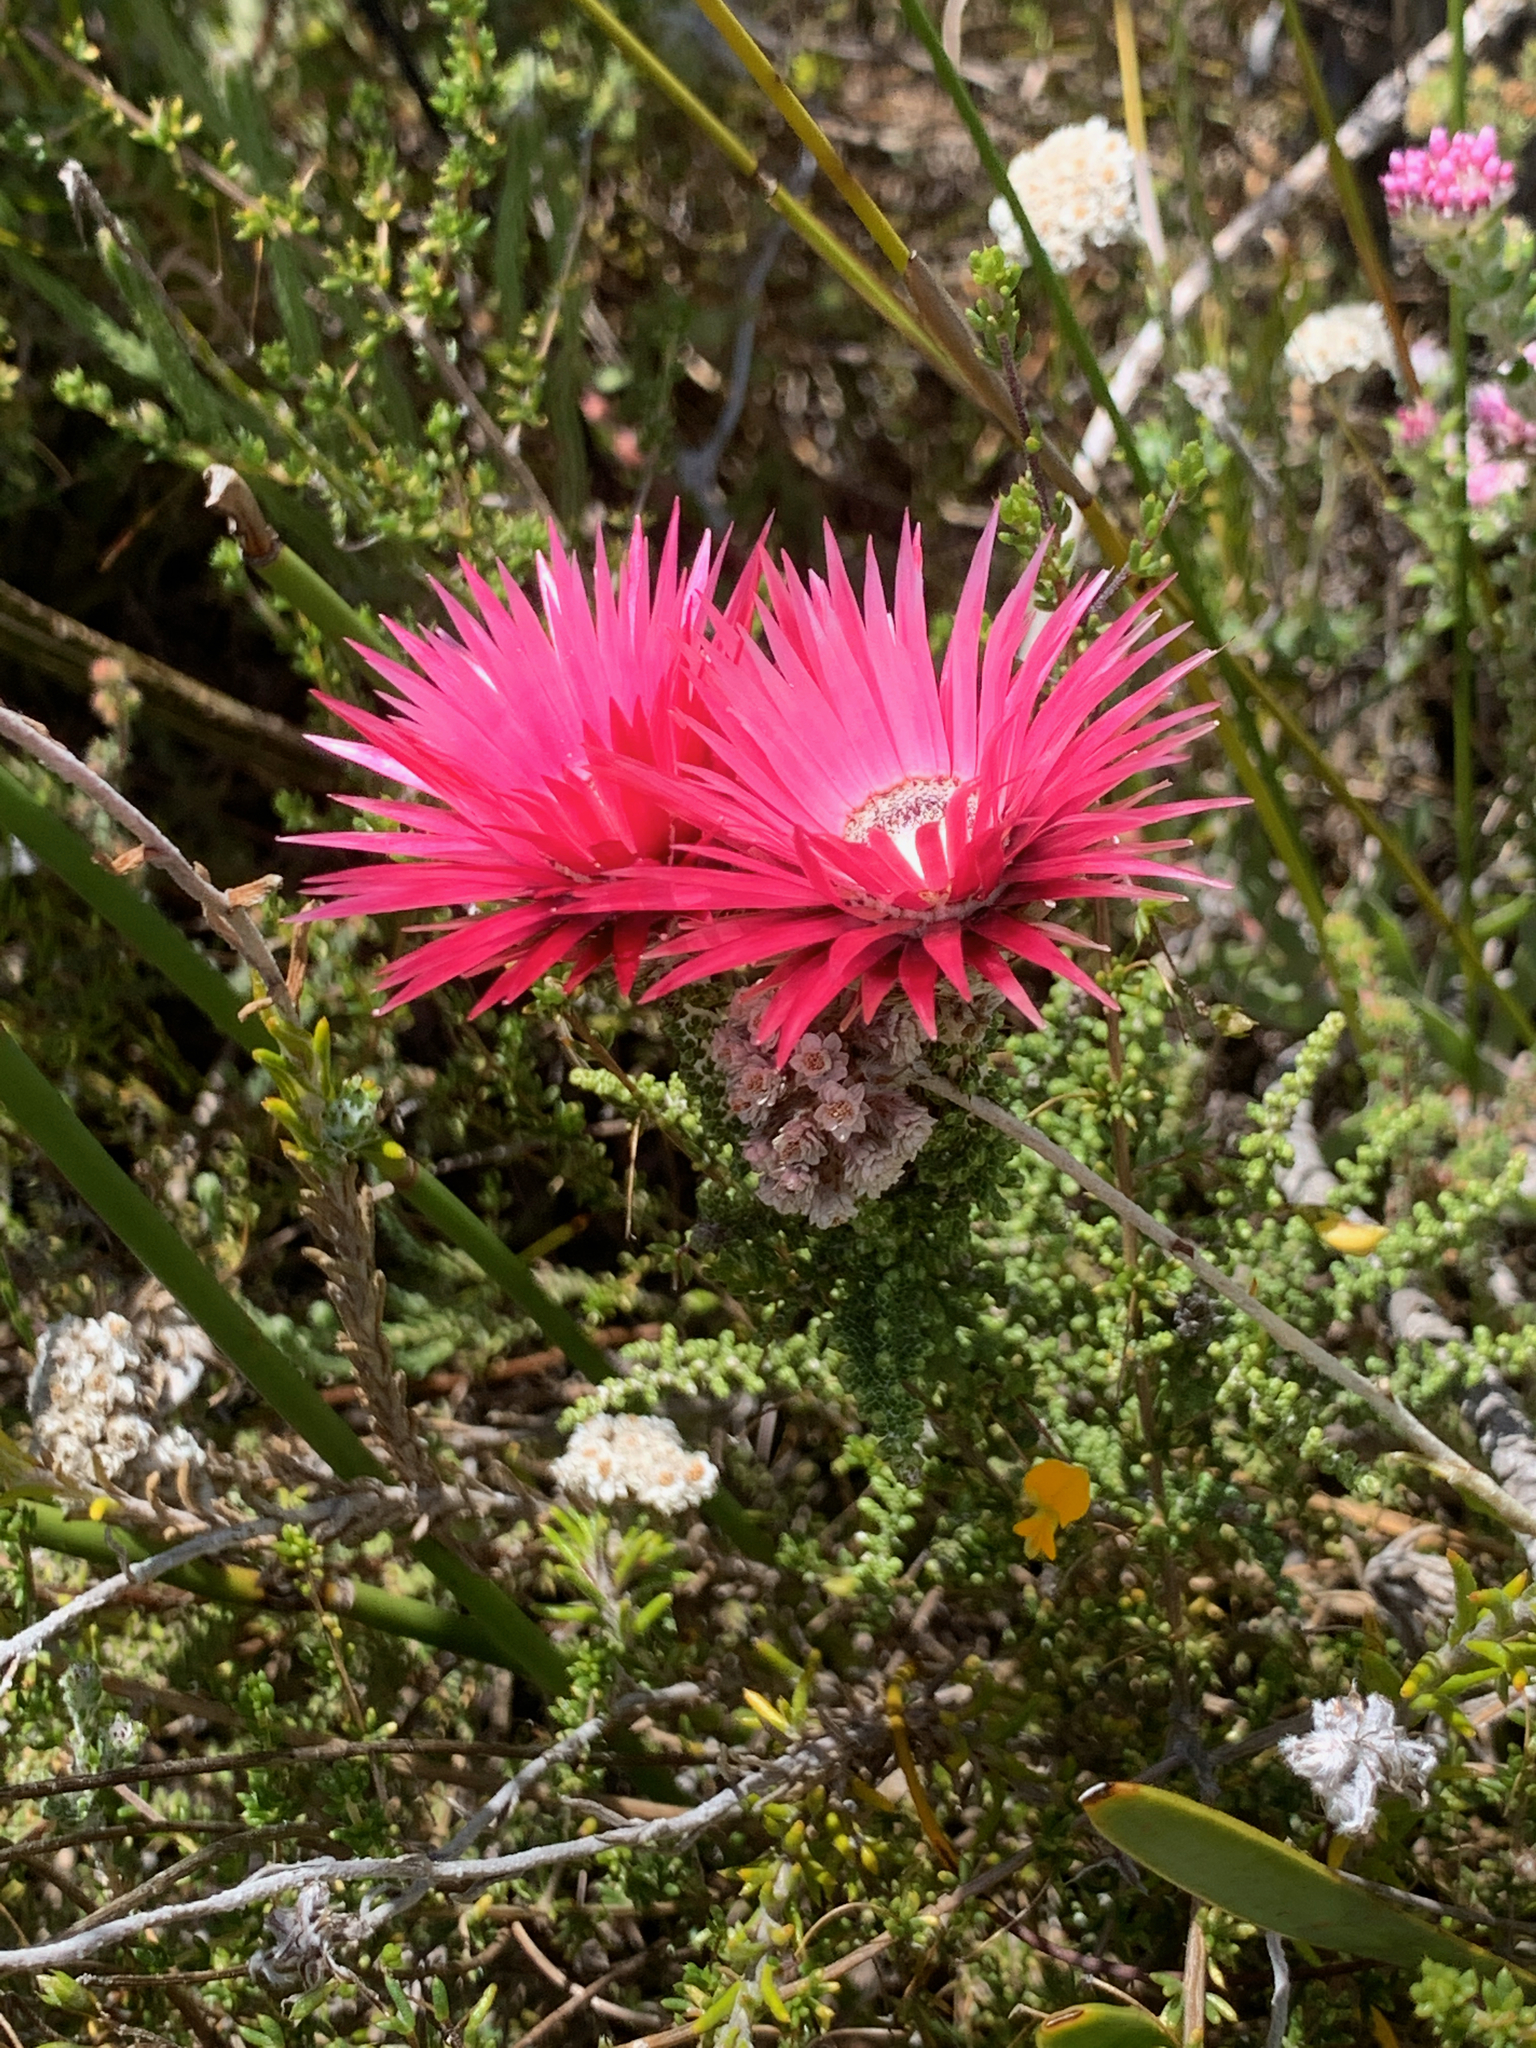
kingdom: Plantae
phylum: Tracheophyta
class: Magnoliopsida
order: Asterales
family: Asteraceae
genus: Phaenocoma
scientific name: Phaenocoma prolifera
